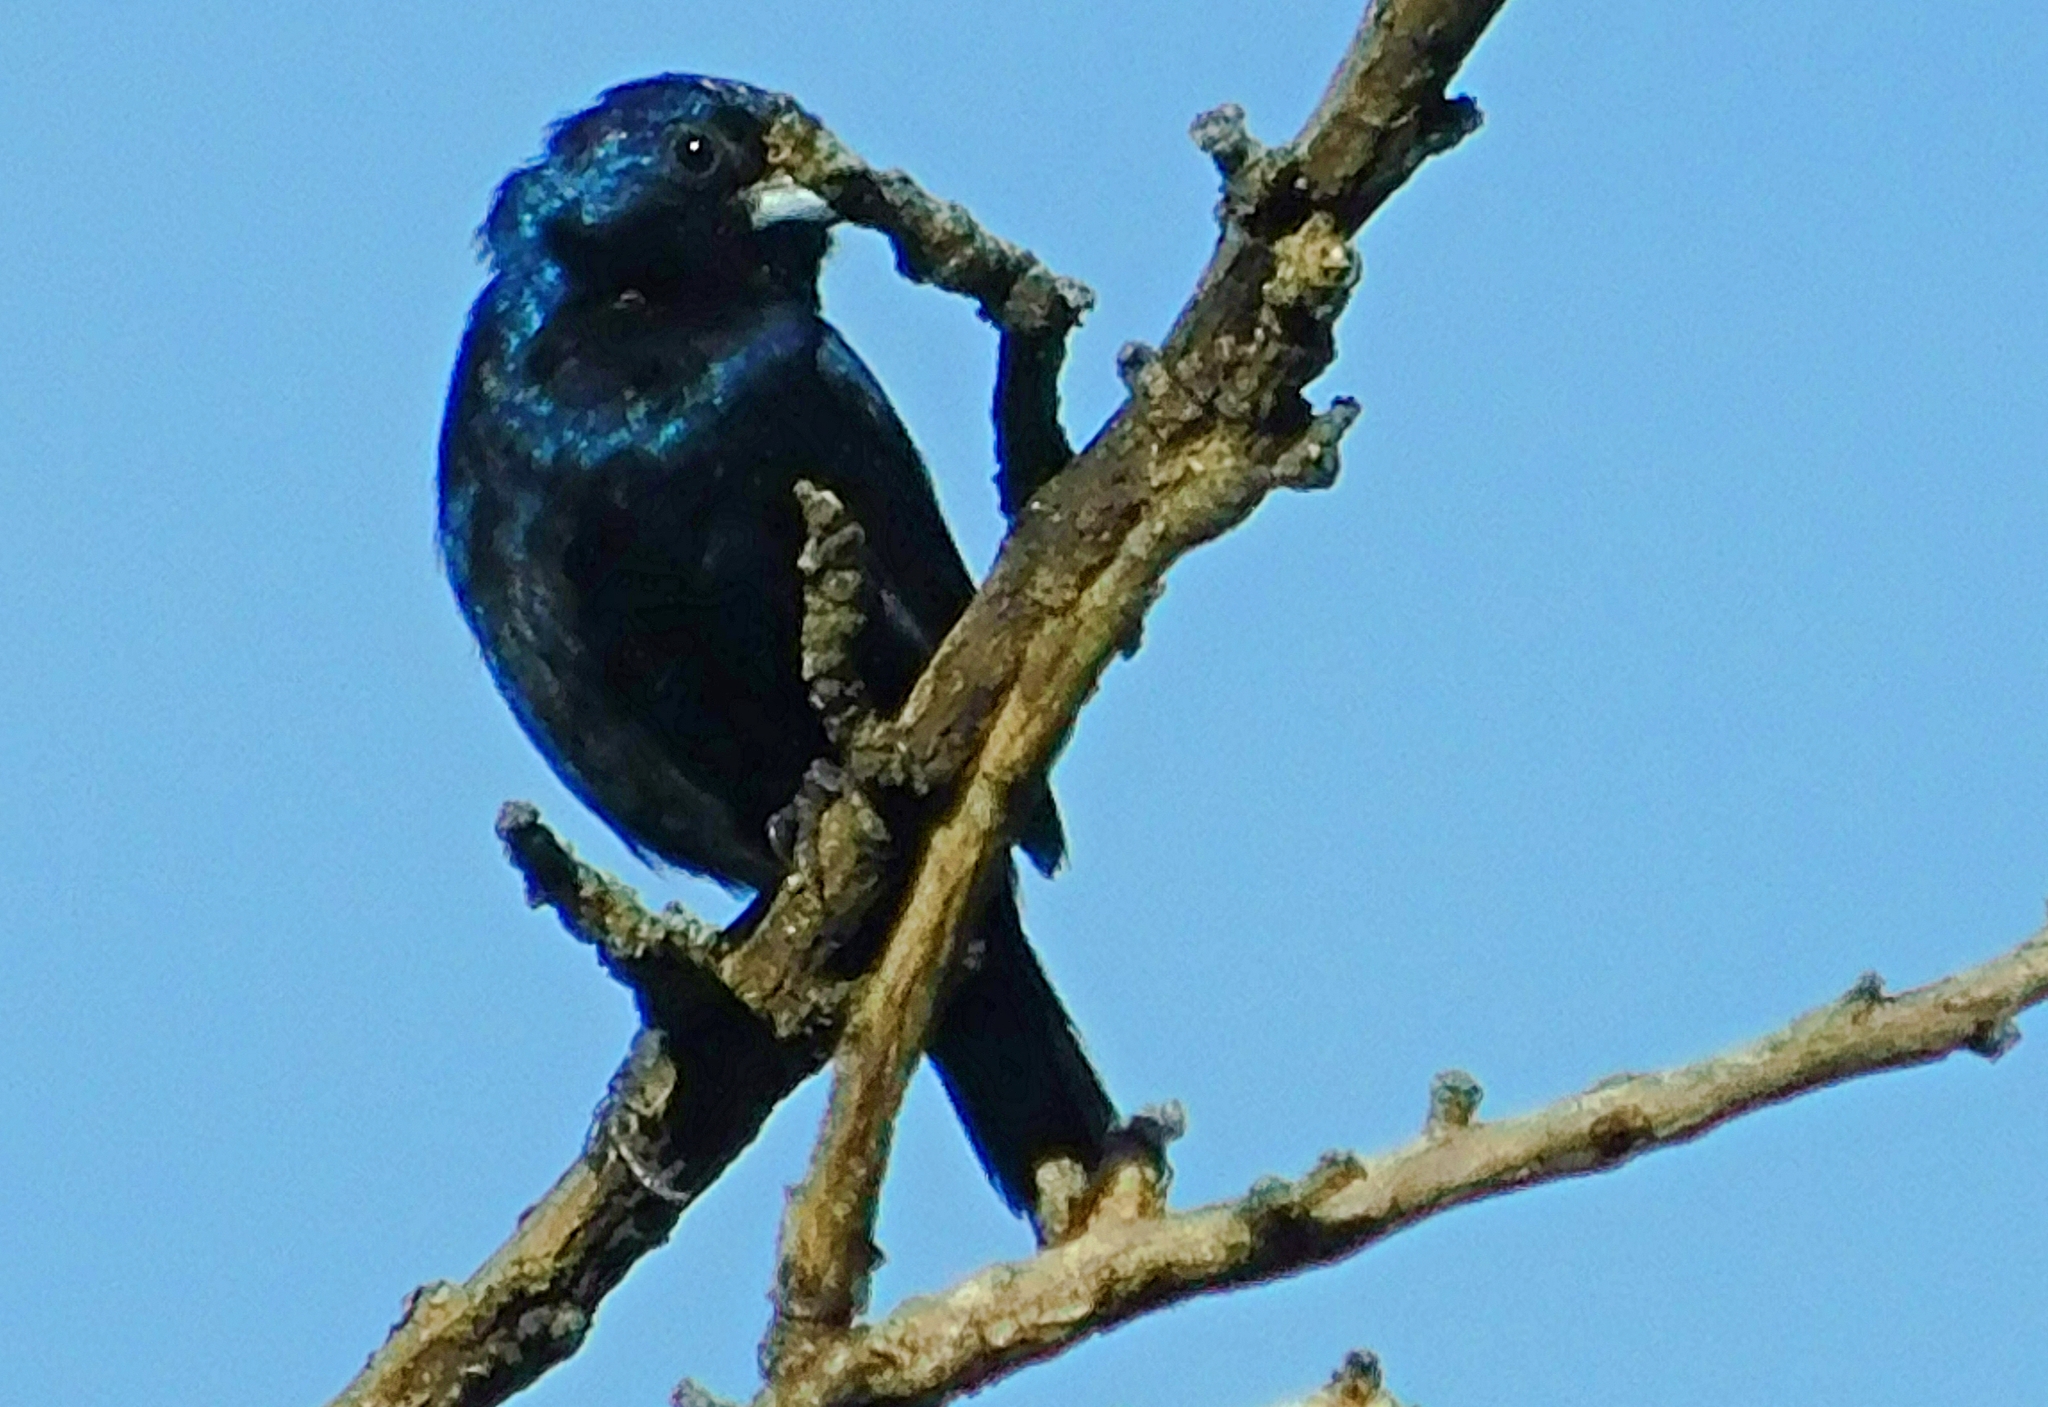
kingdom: Animalia
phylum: Chordata
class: Aves
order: Passeriformes
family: Thraupidae
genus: Volatinia
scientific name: Volatinia jacarina
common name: Blue-black grassquit
